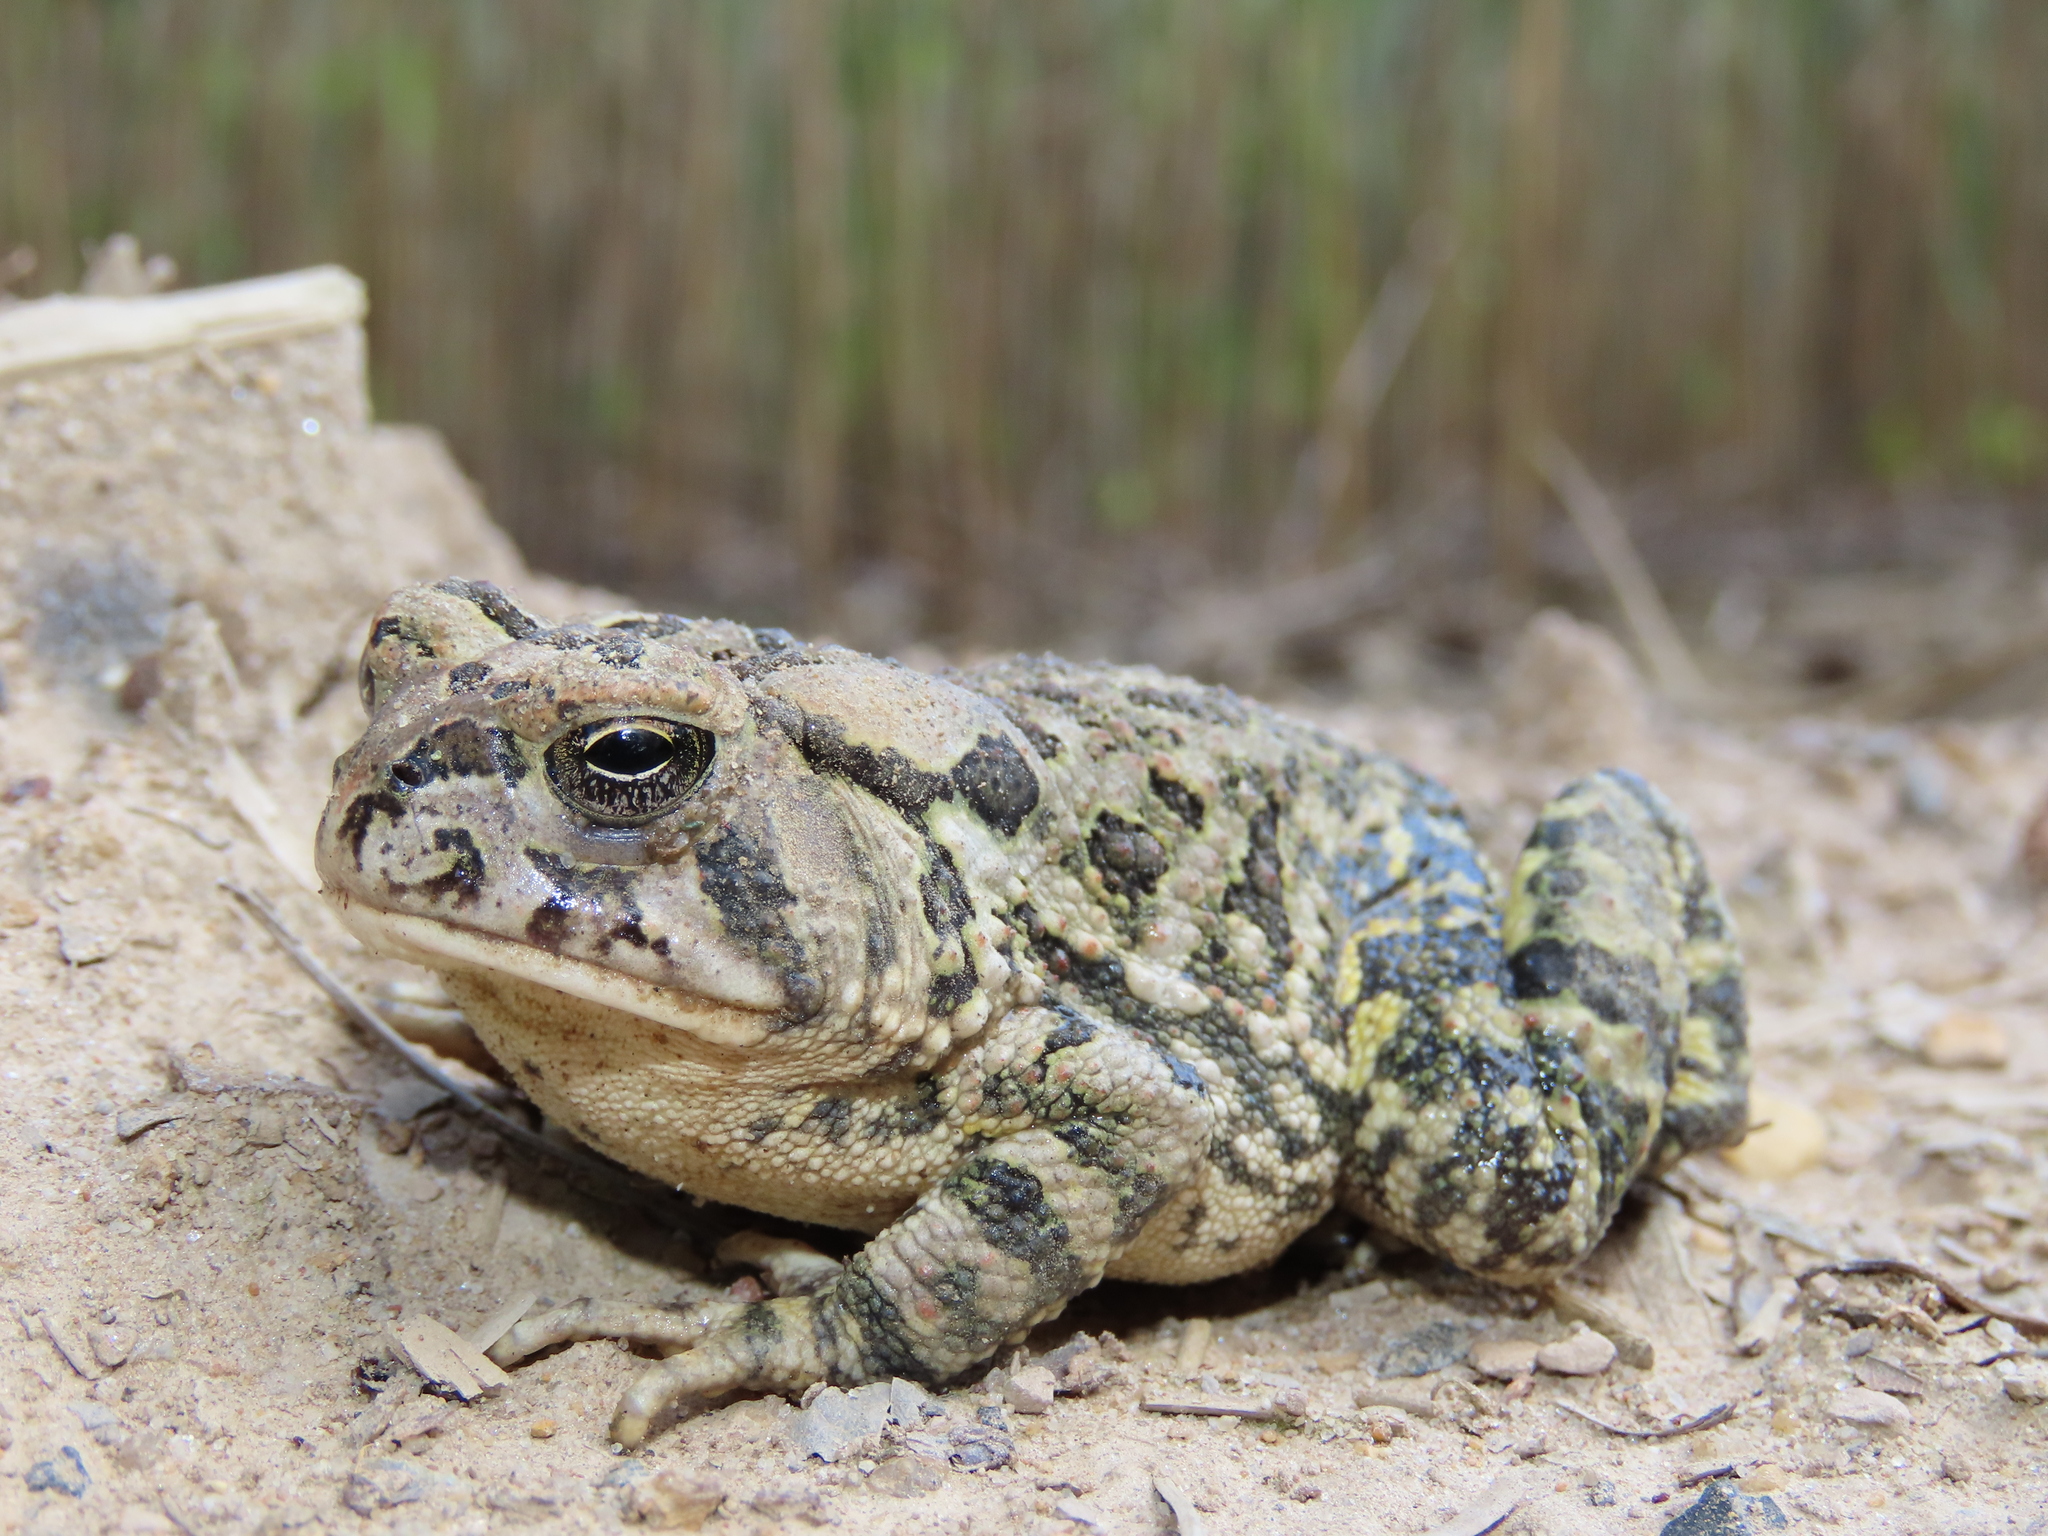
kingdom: Animalia
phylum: Chordata
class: Amphibia
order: Anura
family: Bufonidae
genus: Anaxyrus
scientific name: Anaxyrus fowleri
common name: Fowler's toad
